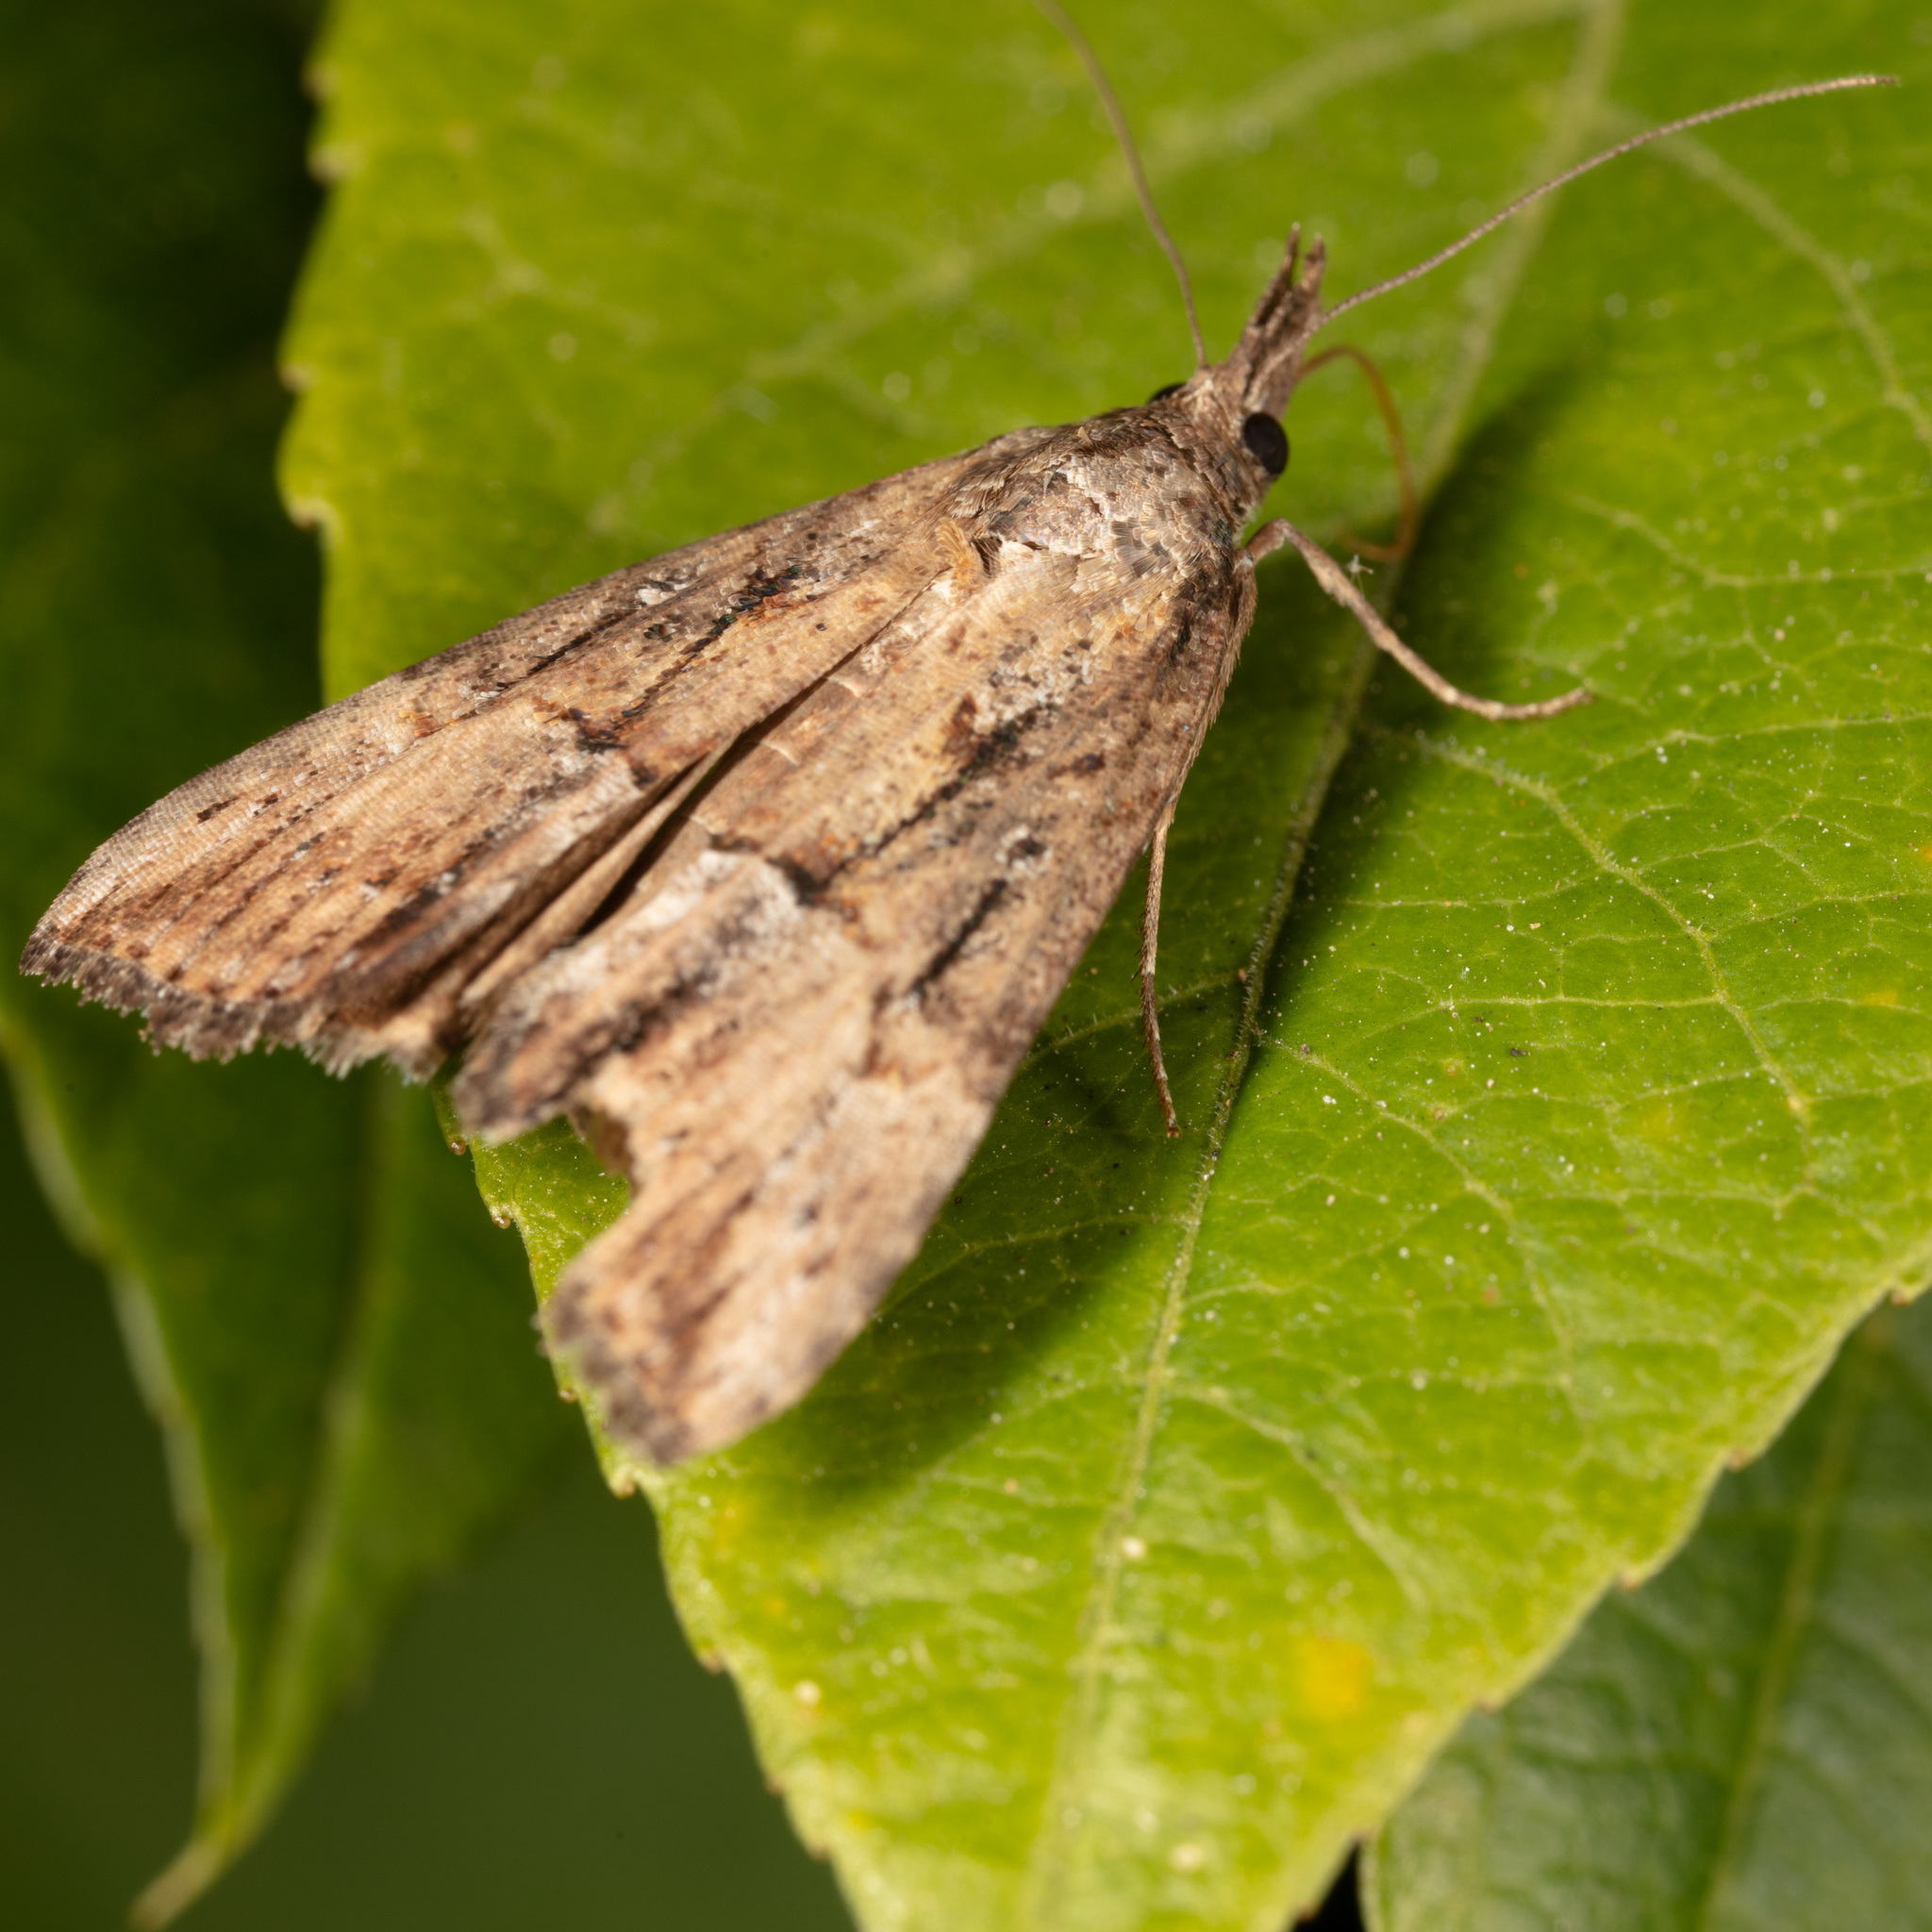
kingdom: Animalia
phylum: Arthropoda
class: Insecta
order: Lepidoptera
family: Erebidae
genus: Hypena
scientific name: Hypena scabra
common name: Green cloverworm
